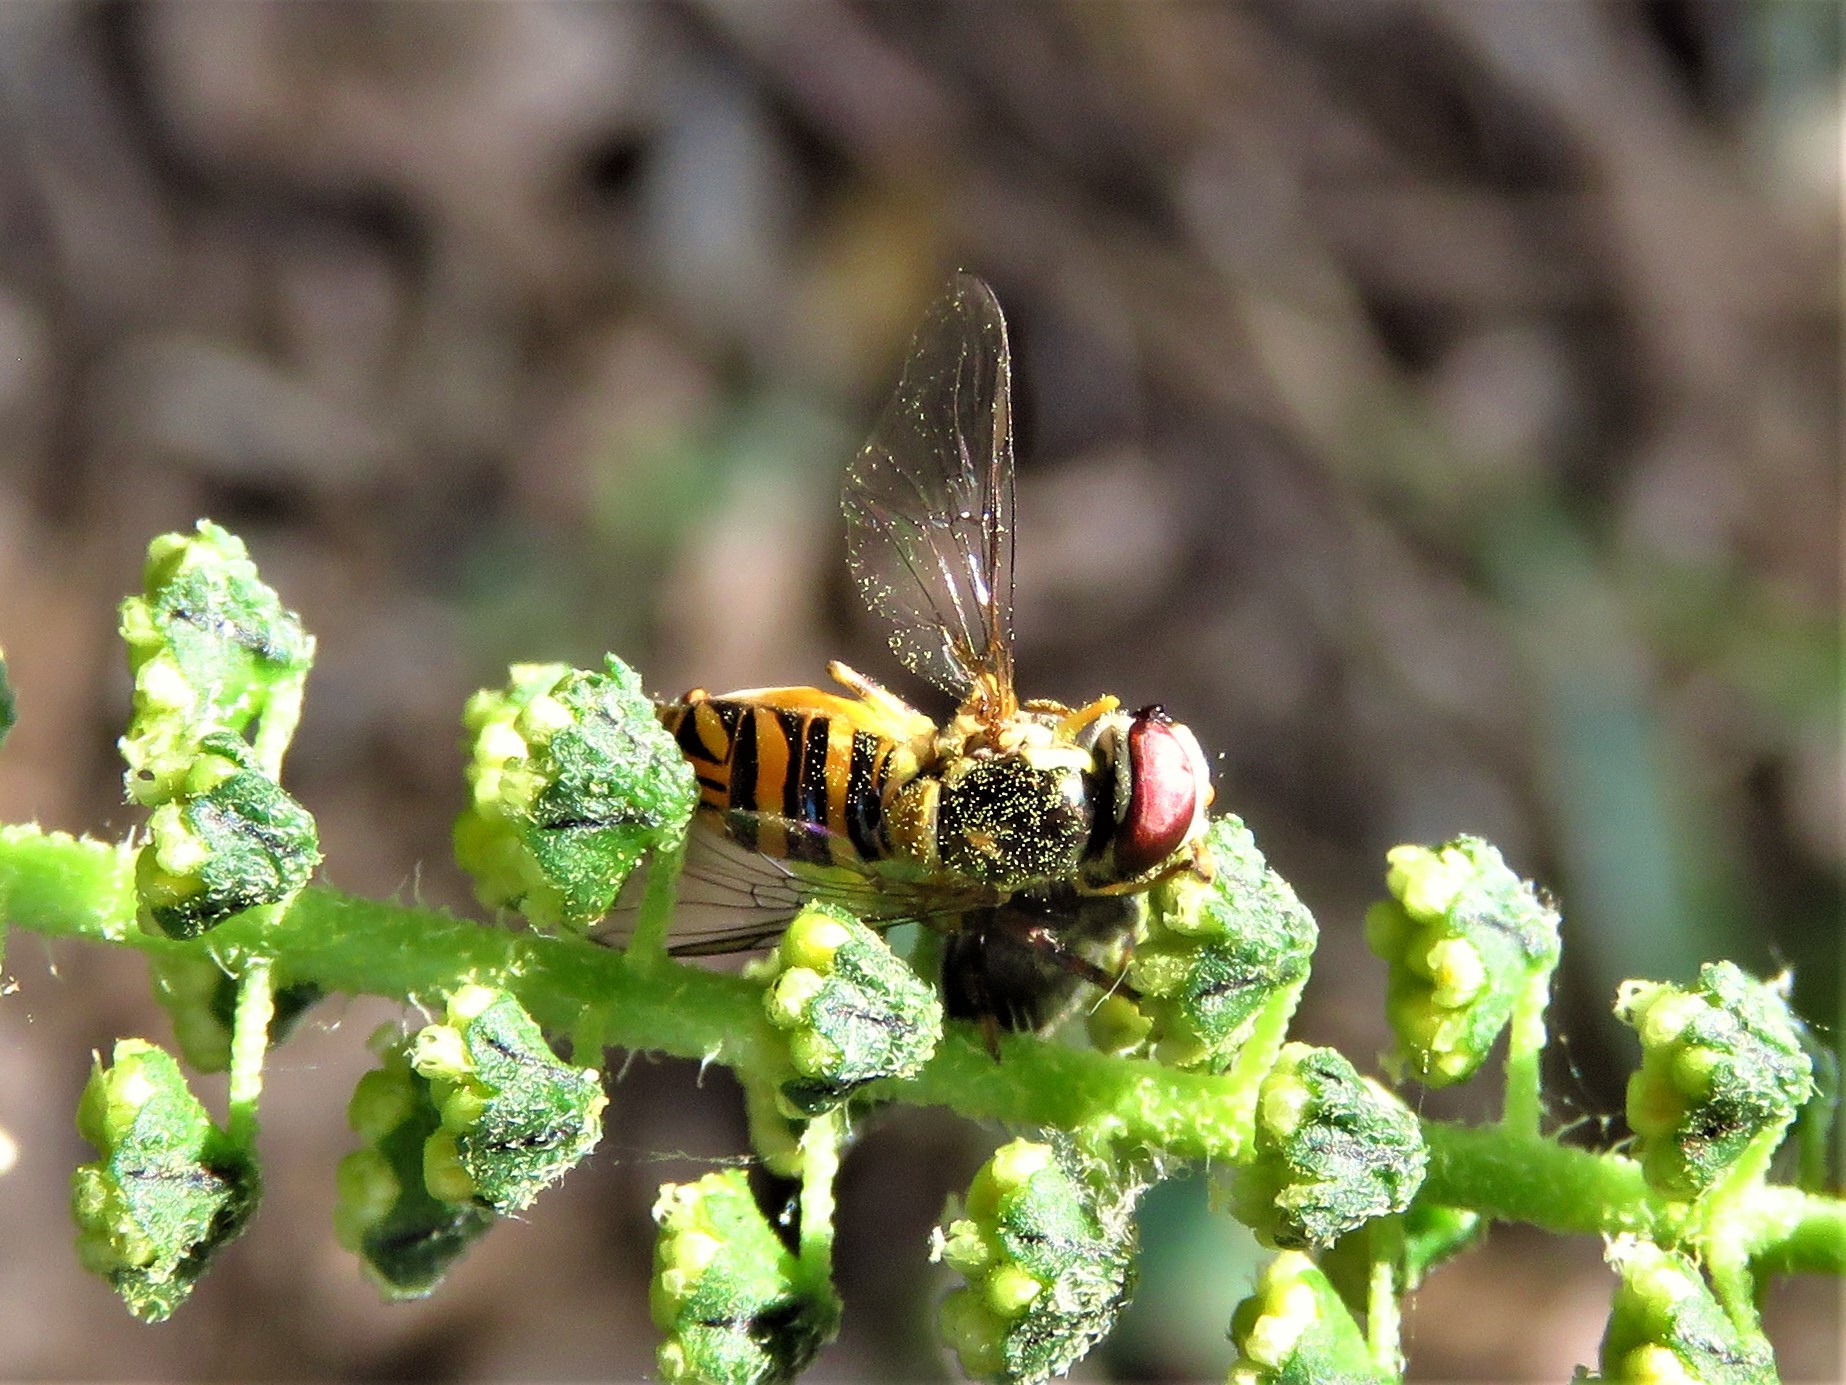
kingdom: Animalia
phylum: Arthropoda
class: Insecta
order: Diptera
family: Syrphidae
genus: Allograpta
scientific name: Allograpta obliqua
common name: Common oblique syrphid
